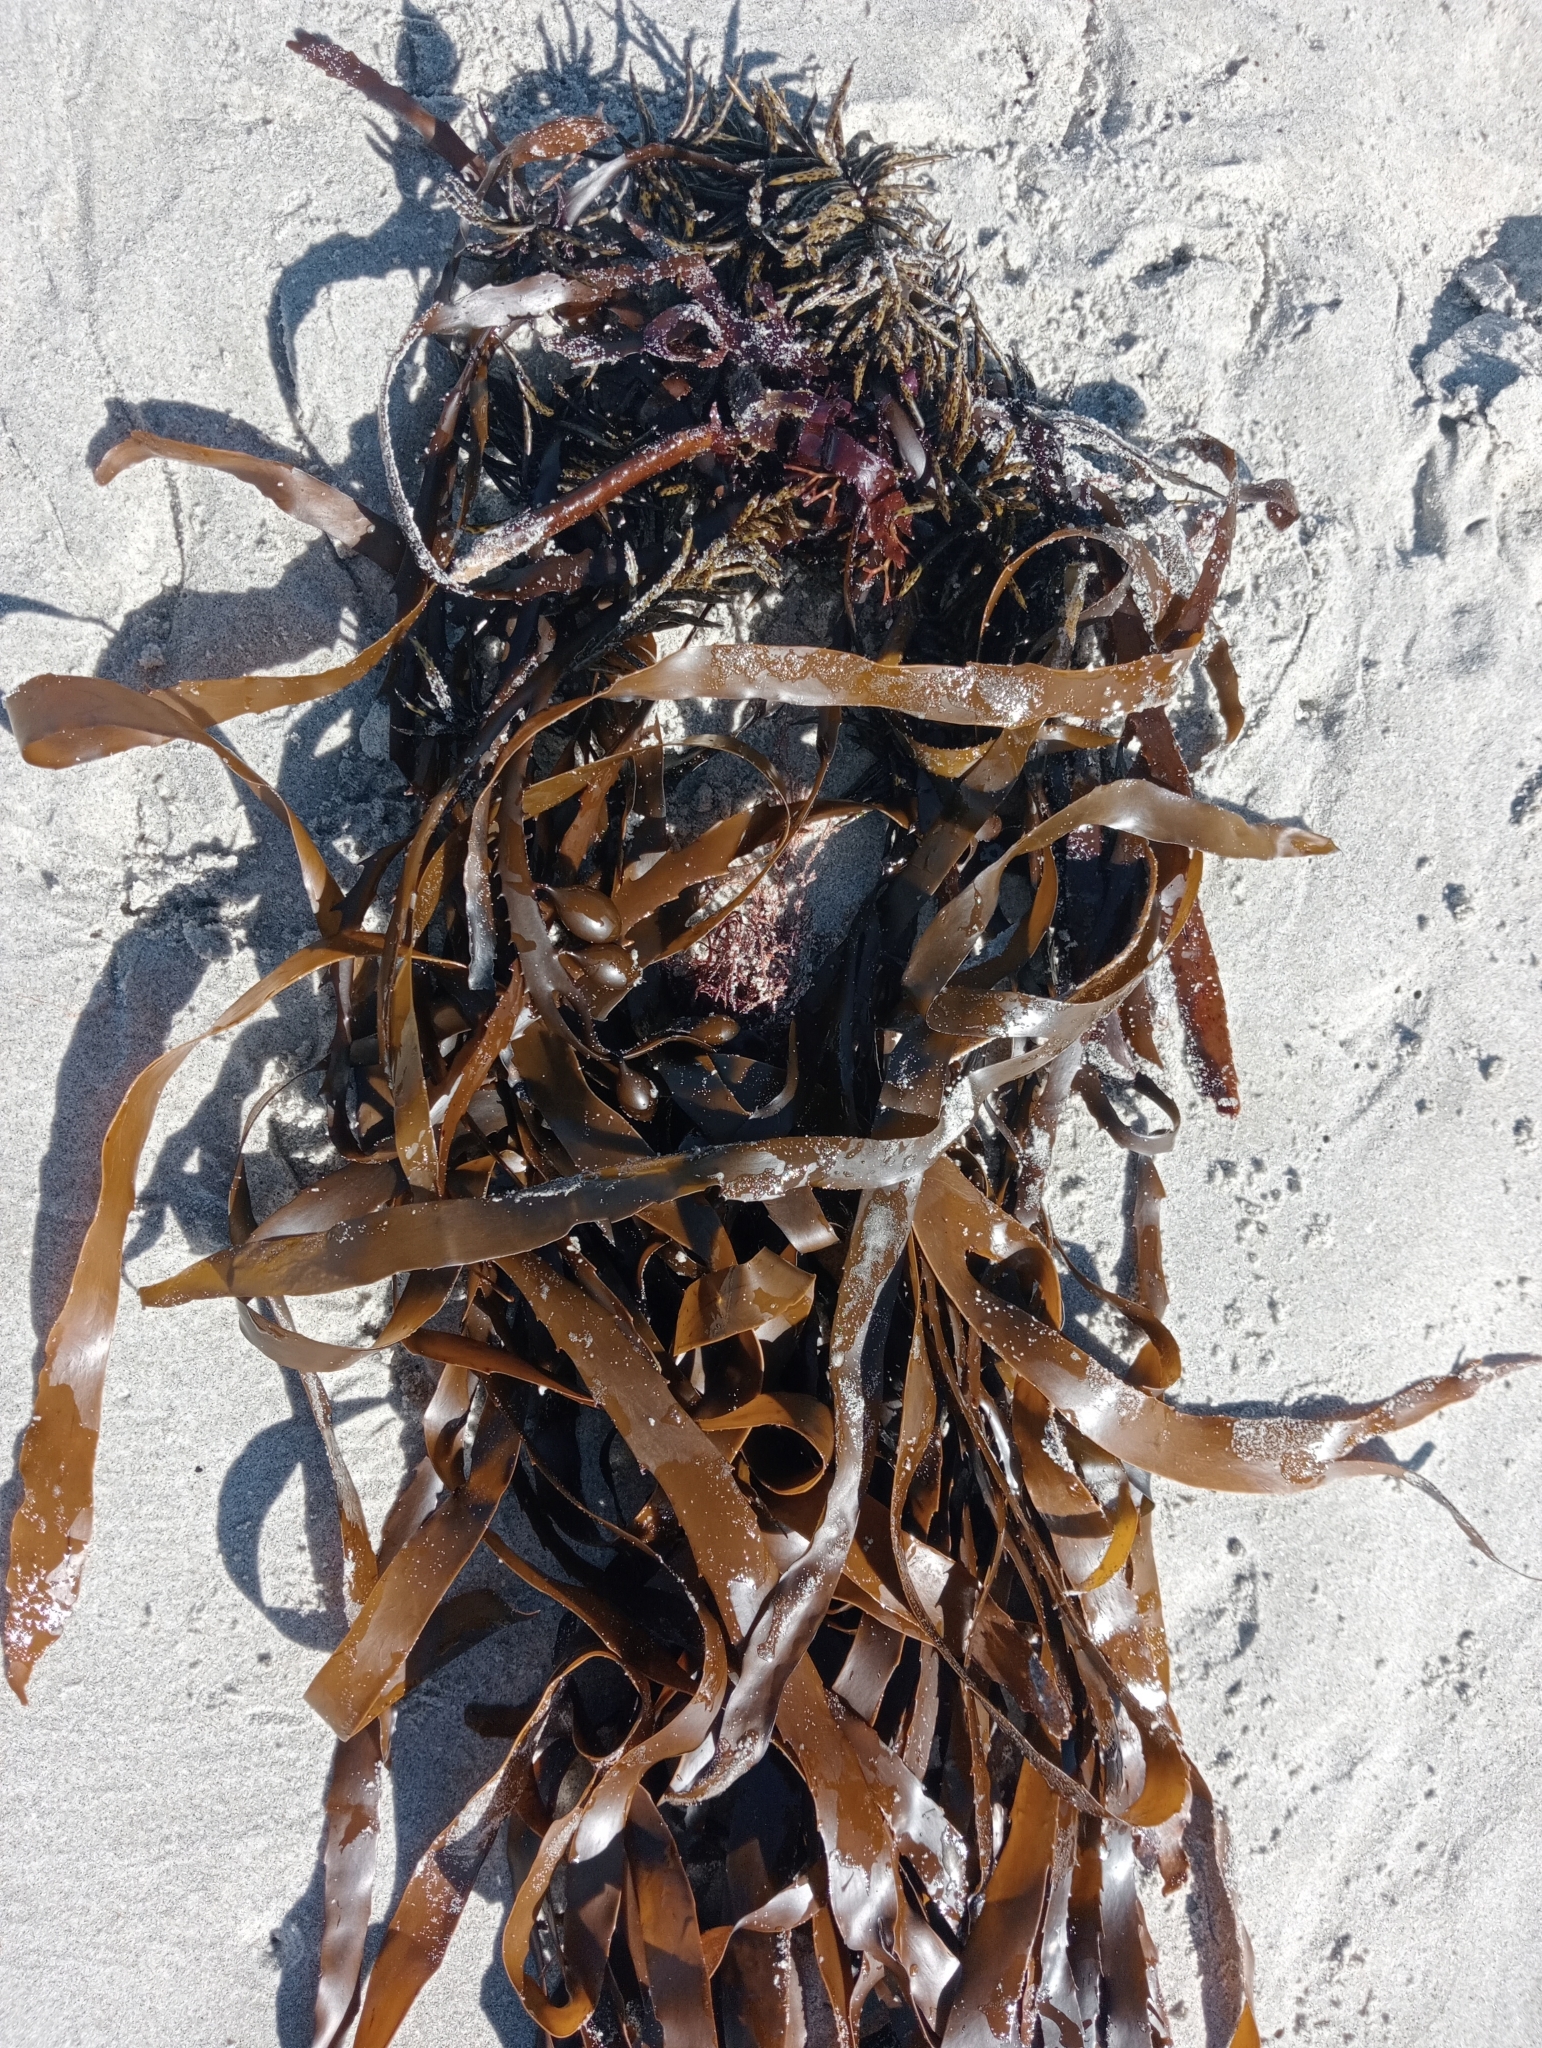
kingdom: Chromista
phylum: Ochrophyta
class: Phaeophyceae
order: Fucales
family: Seirococcaceae
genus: Marginariella
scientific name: Marginariella boryana
